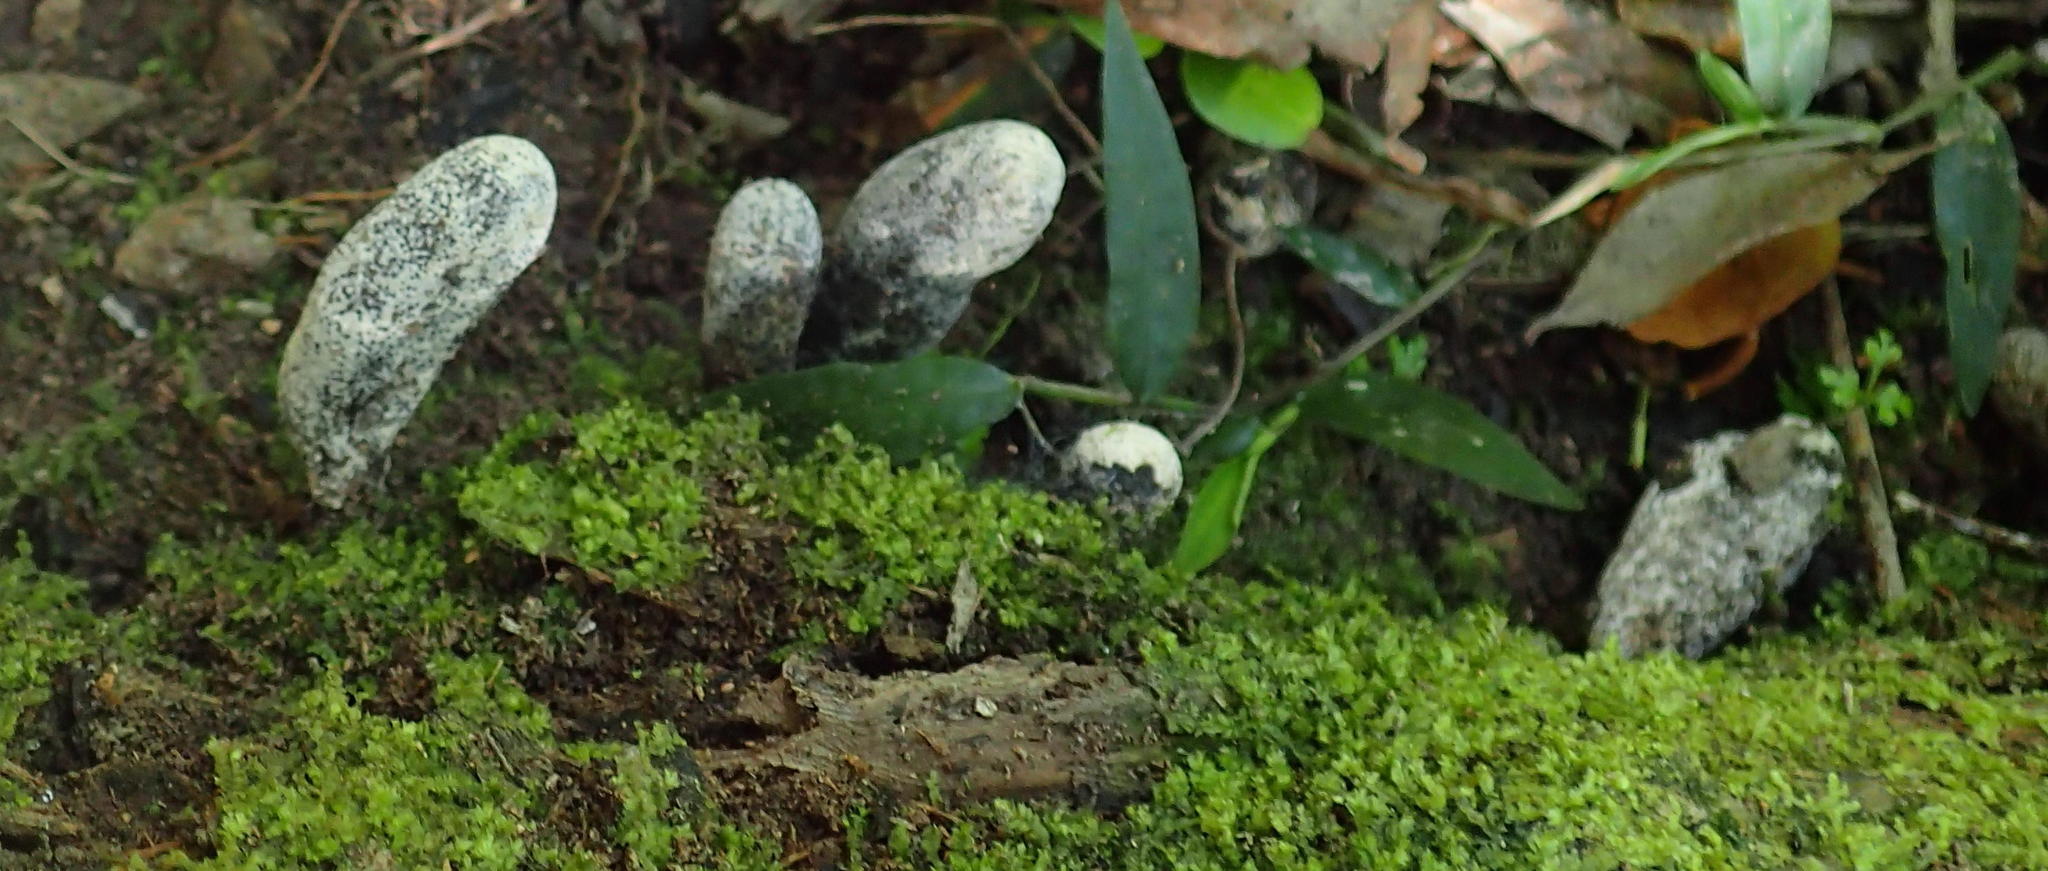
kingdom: Fungi
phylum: Ascomycota
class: Sordariomycetes
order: Xylariales
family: Xylariaceae
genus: Xylaria
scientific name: Xylaria polymorpha
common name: Dead man's fingers
